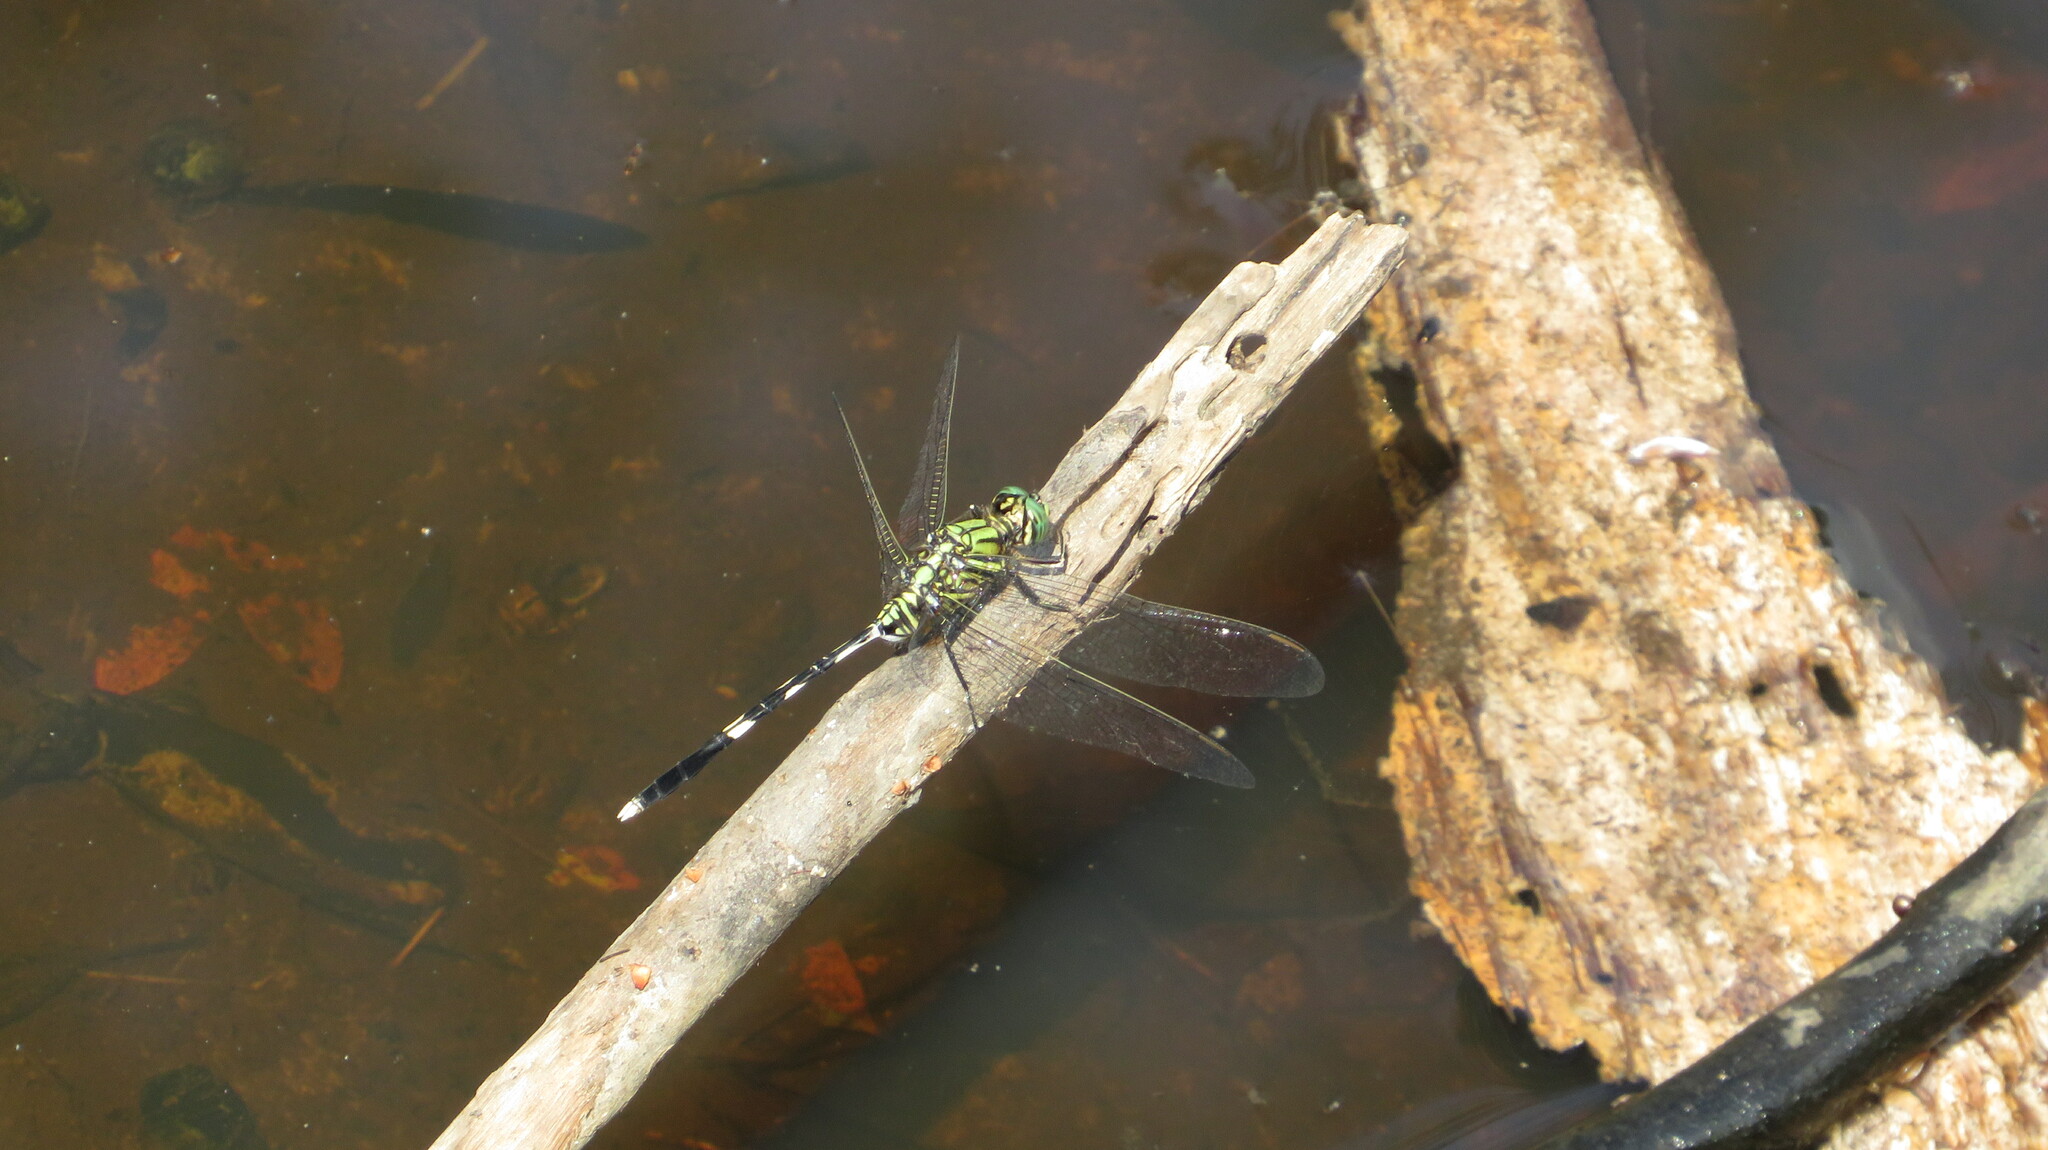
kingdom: Animalia
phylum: Arthropoda
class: Insecta
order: Odonata
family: Libellulidae
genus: Orthetrum
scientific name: Orthetrum sabina
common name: Slender skimmer
